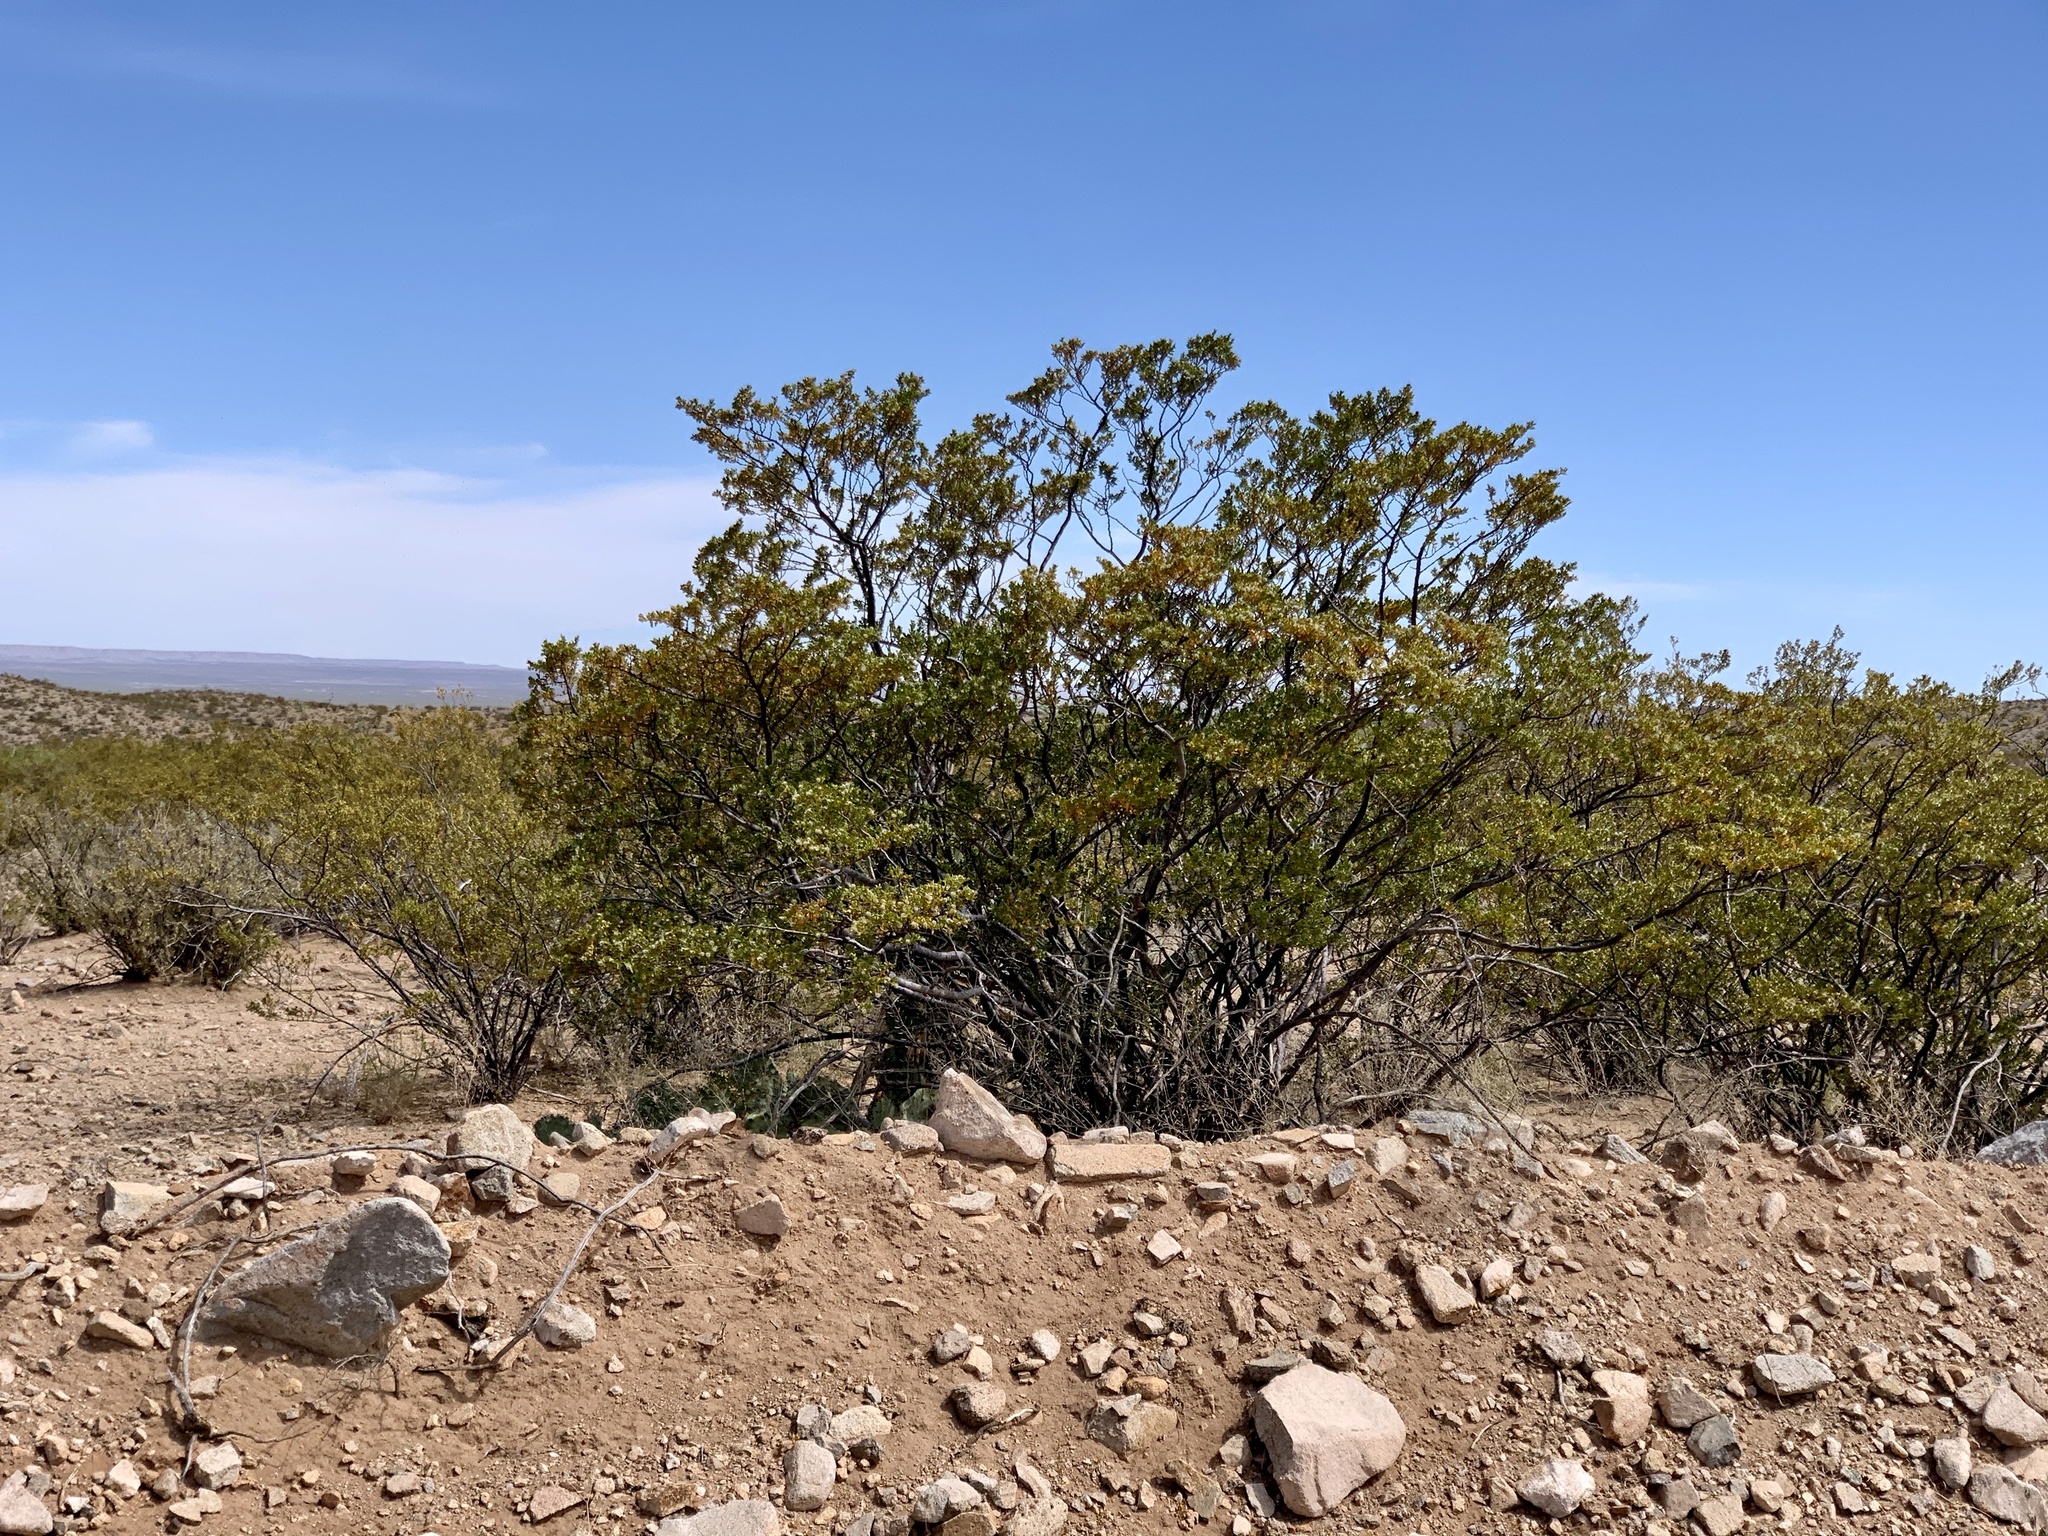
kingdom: Plantae
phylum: Tracheophyta
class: Magnoliopsida
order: Zygophyllales
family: Zygophyllaceae
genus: Larrea
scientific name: Larrea tridentata
